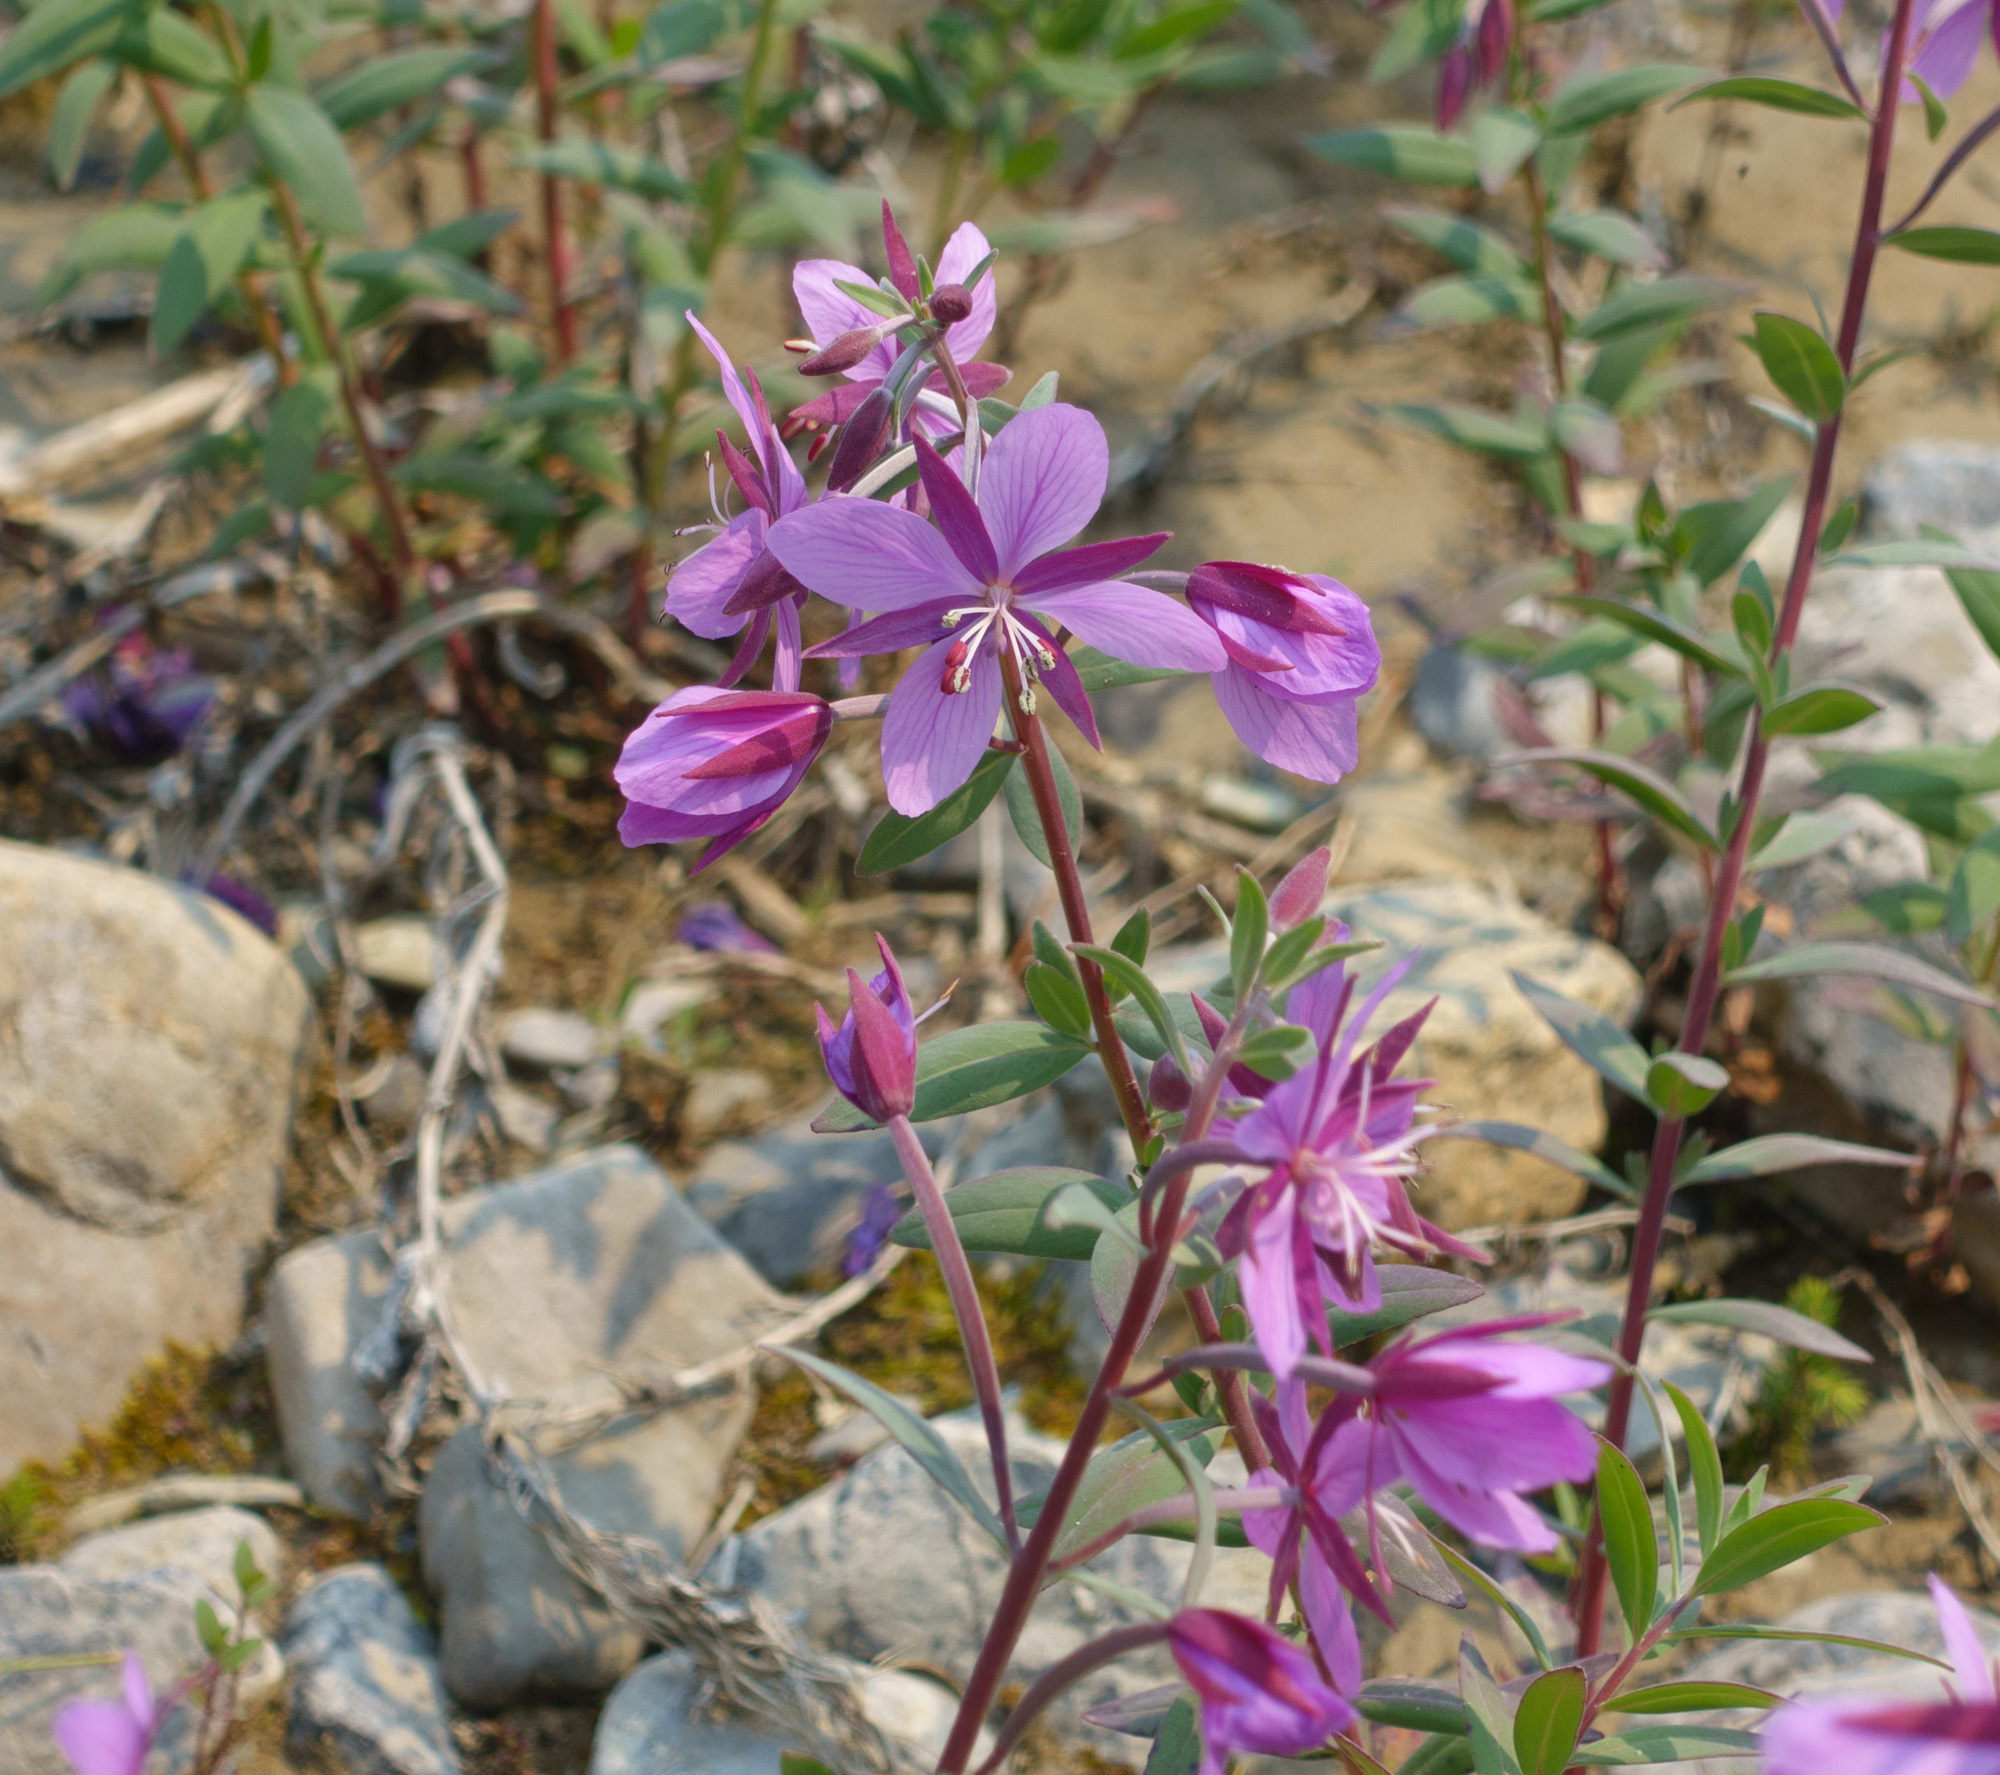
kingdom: Plantae
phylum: Tracheophyta
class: Magnoliopsida
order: Myrtales
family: Onagraceae
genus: Chamaenerion
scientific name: Chamaenerion latifolium
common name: Dwarf fireweed
